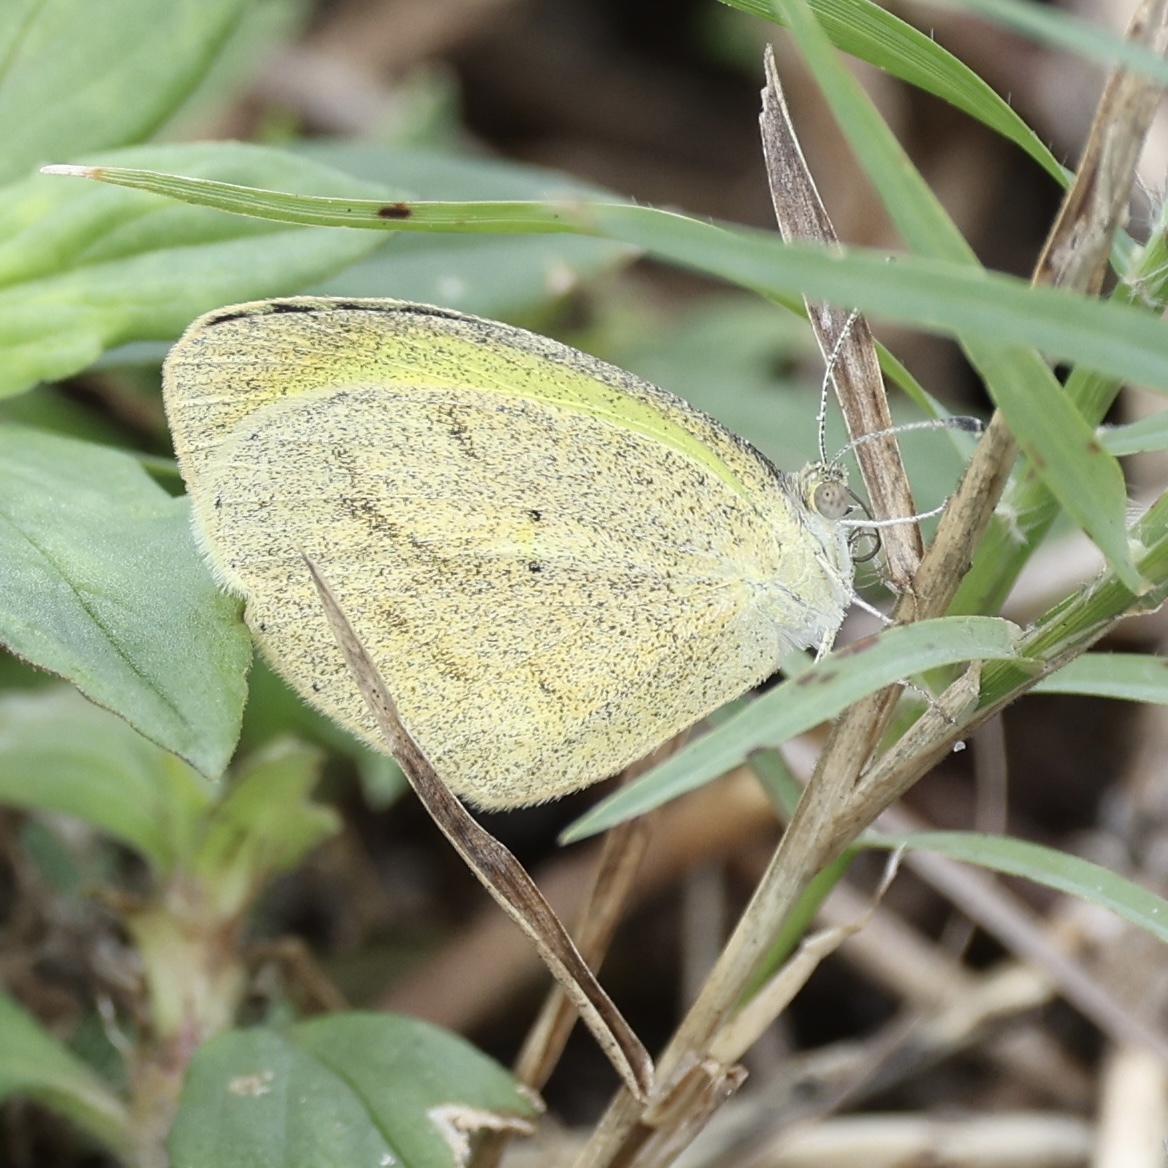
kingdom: Animalia
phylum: Arthropoda
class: Insecta
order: Lepidoptera
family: Pieridae
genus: Eurema
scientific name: Eurema daira
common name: Barred sulphur
